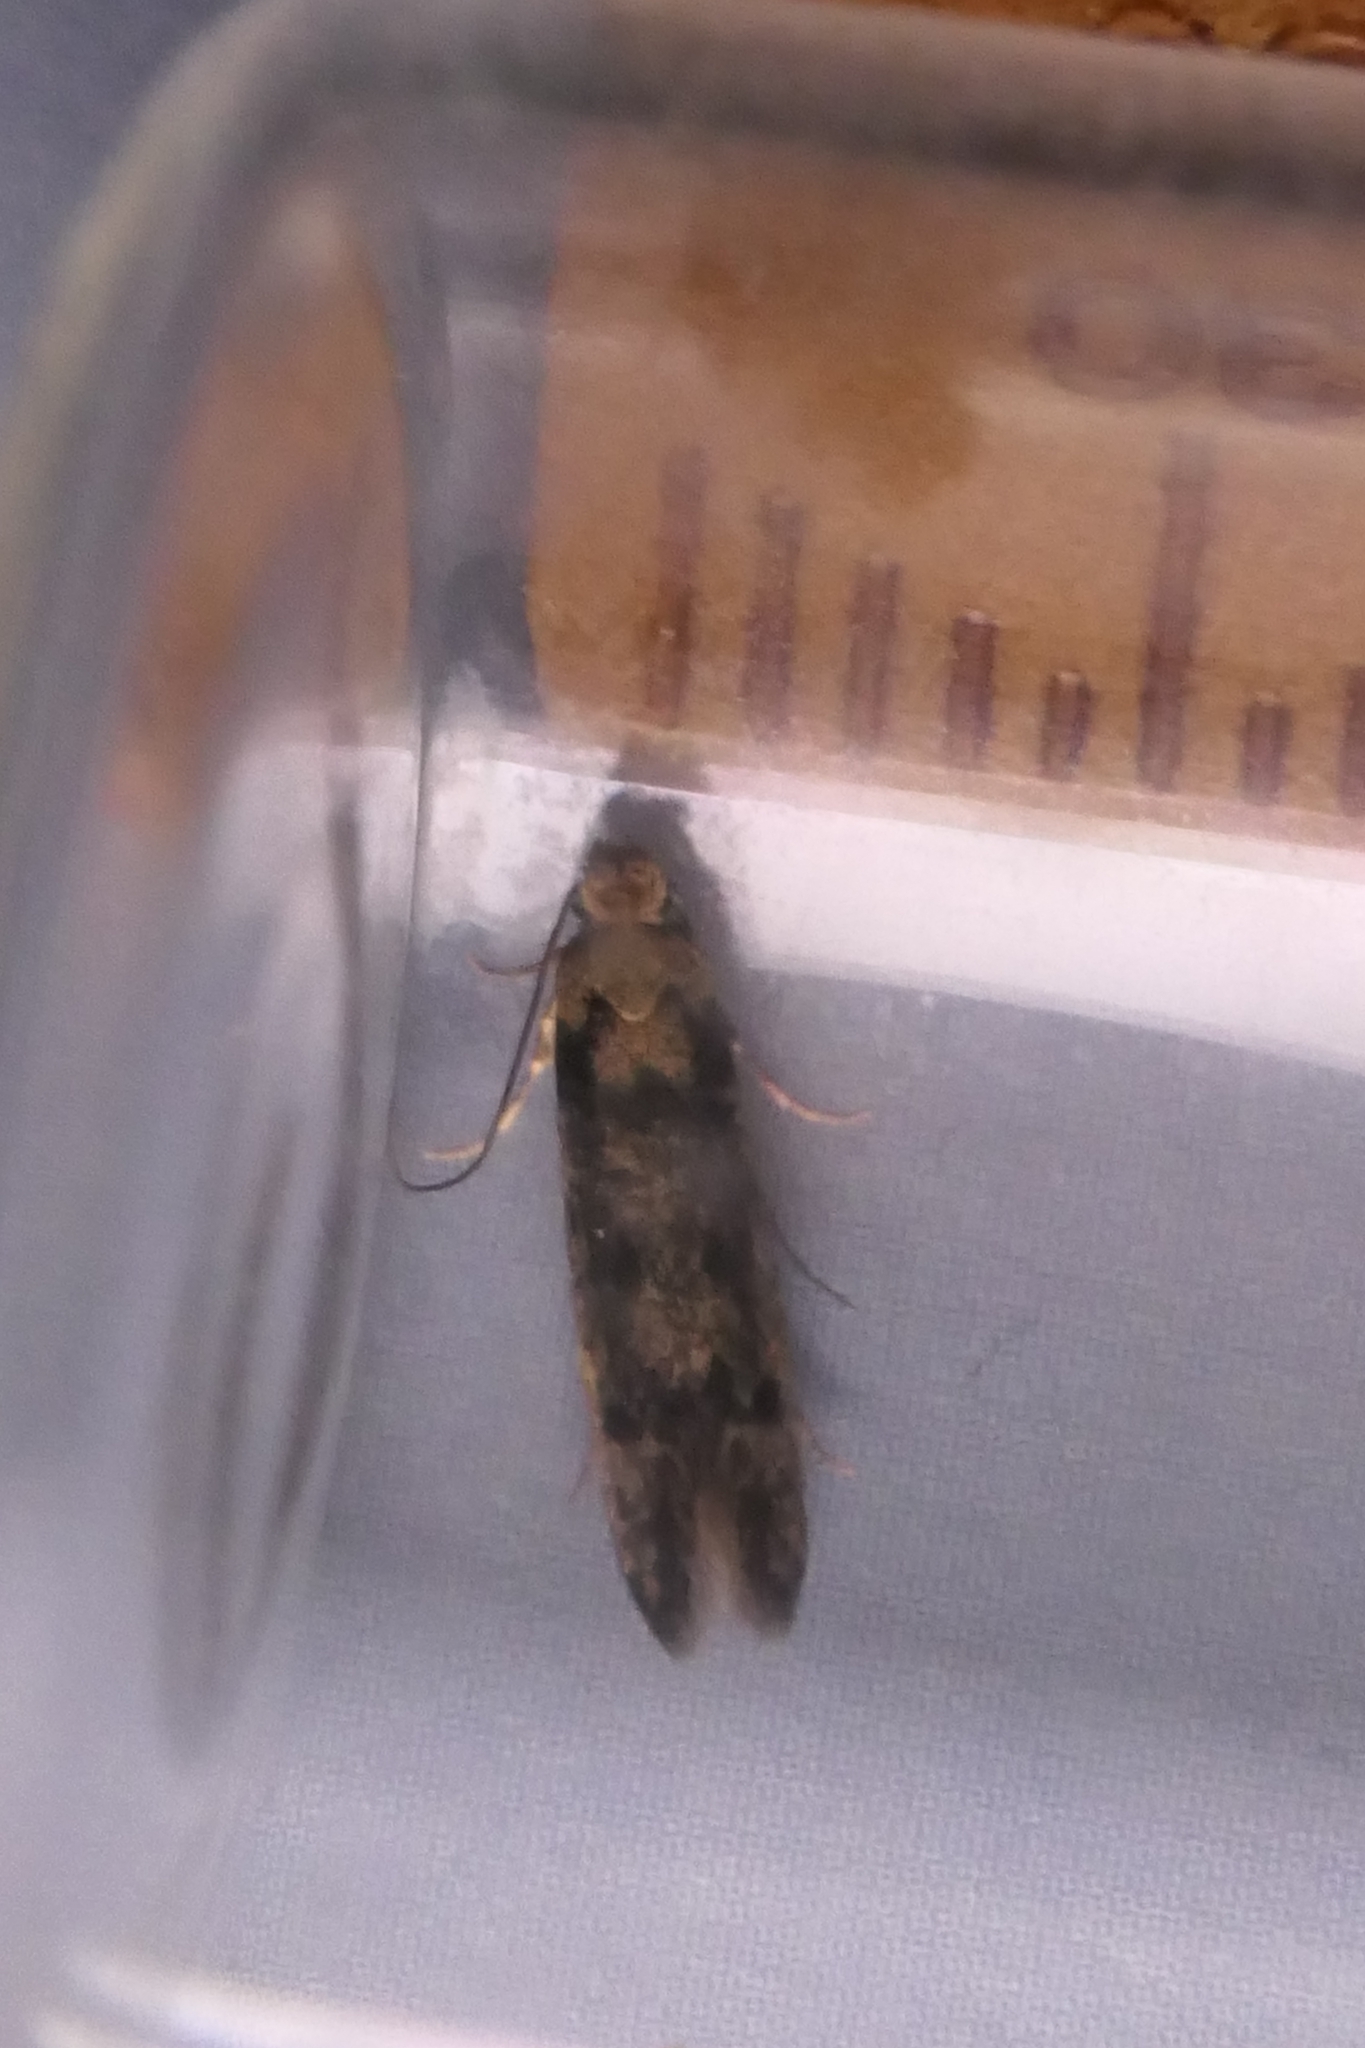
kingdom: Animalia
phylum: Arthropoda
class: Insecta
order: Lepidoptera
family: Tineidae
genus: Niditinea
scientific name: Niditinea fuscella
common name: Brown-dotted clothes moth
